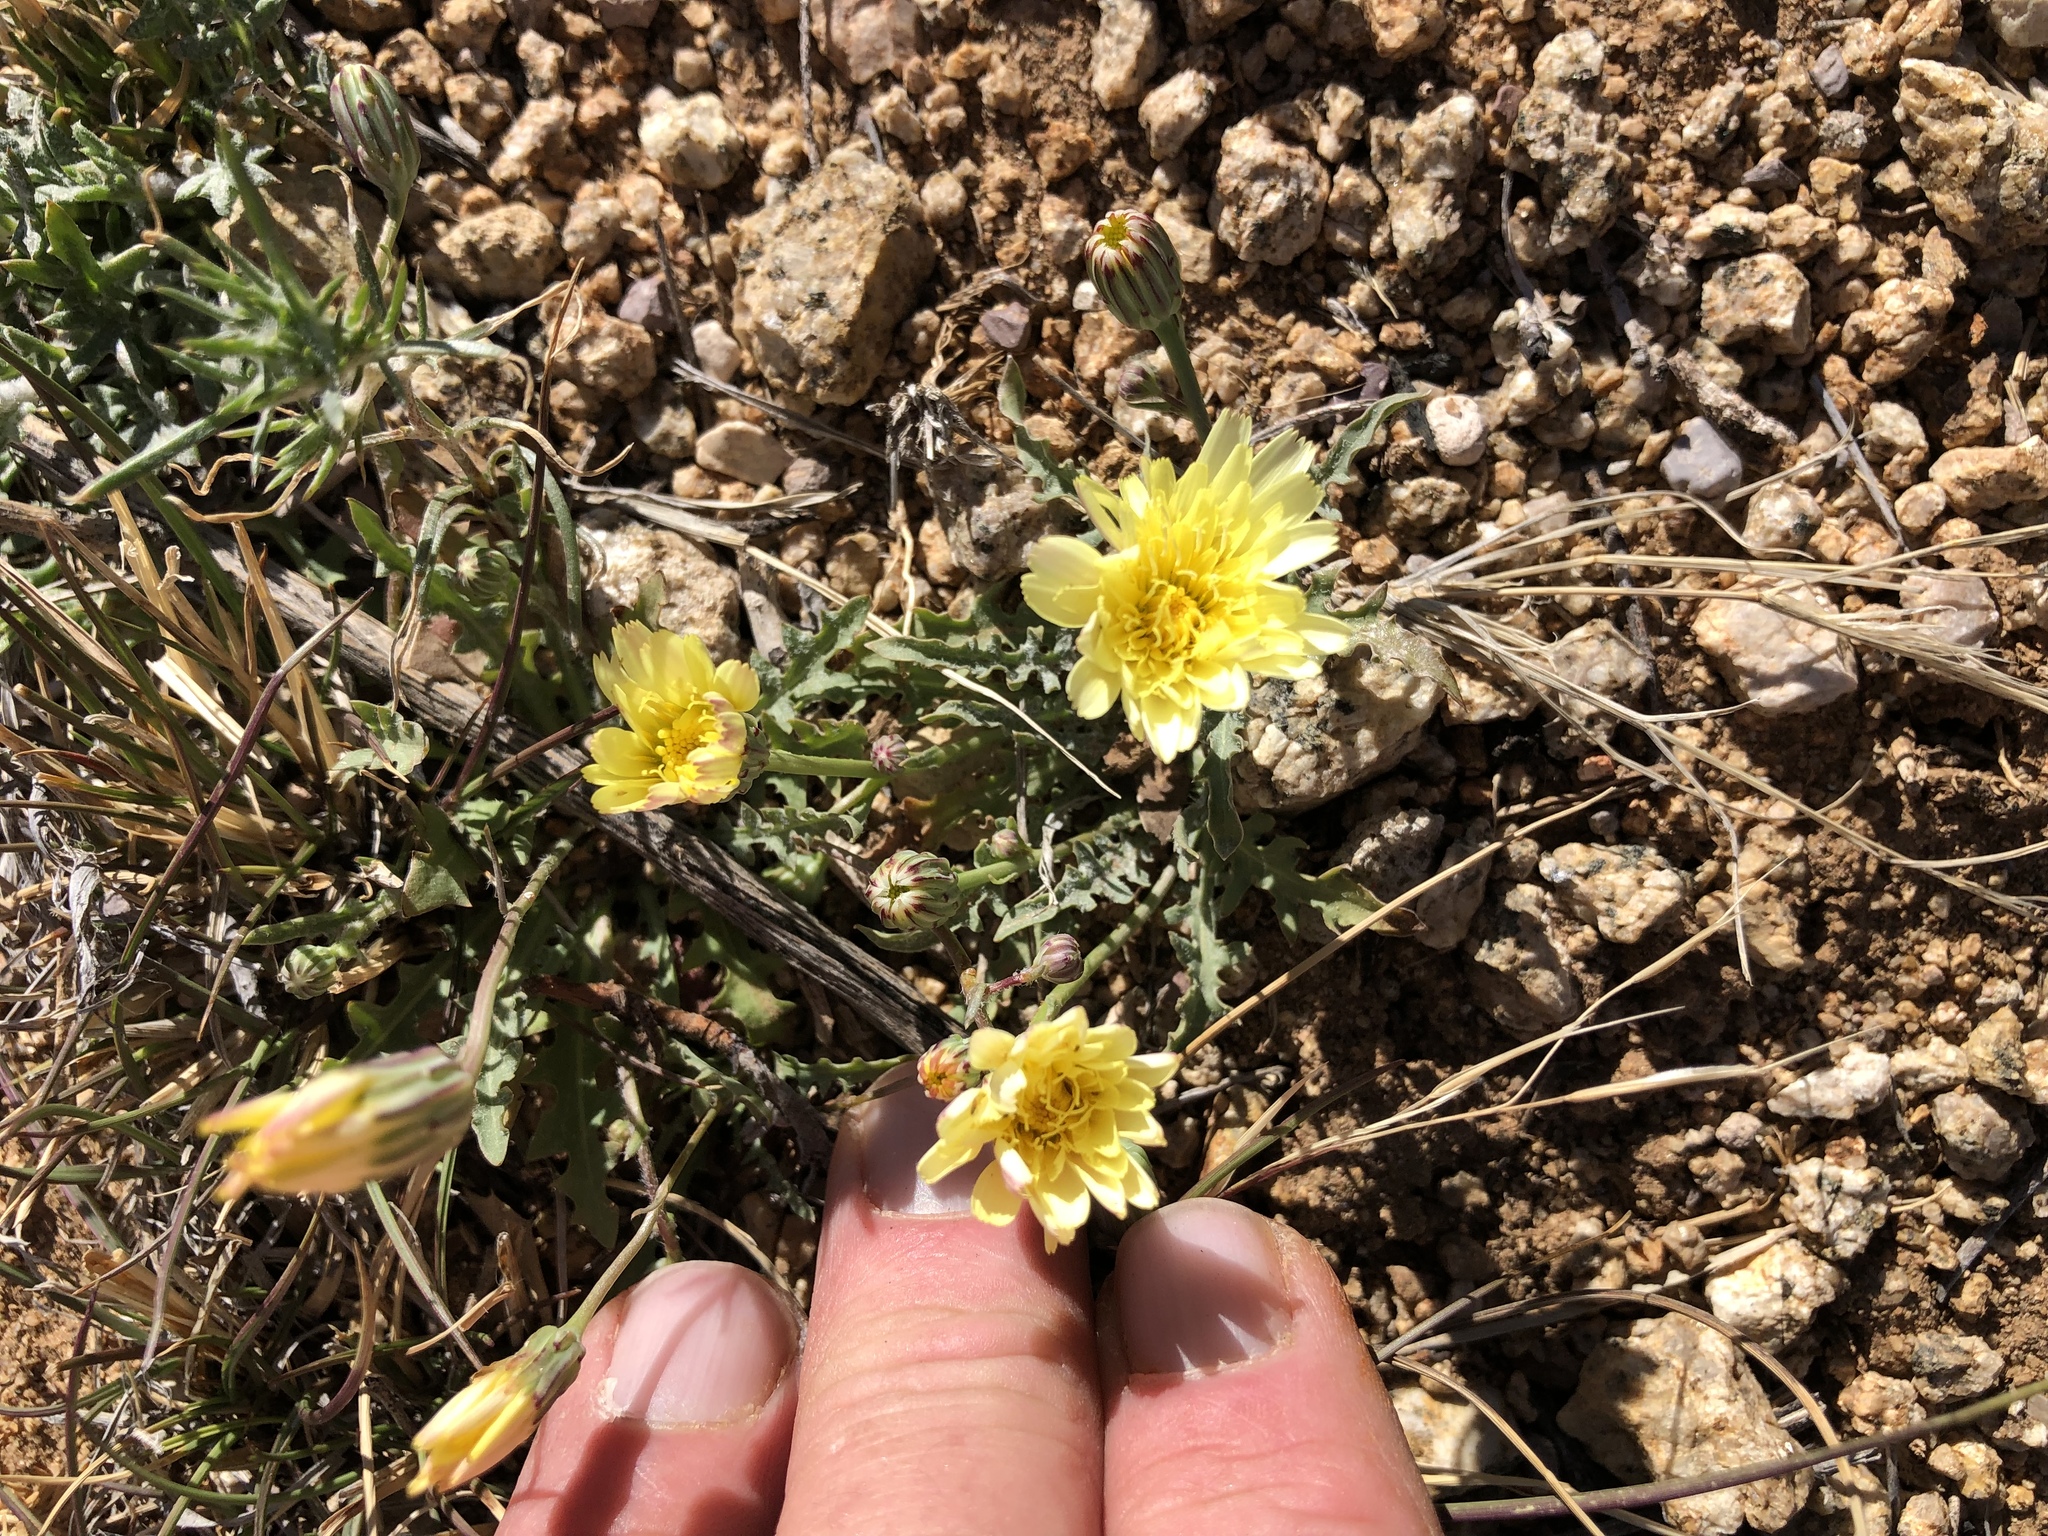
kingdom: Plantae
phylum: Tracheophyta
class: Magnoliopsida
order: Asterales
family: Asteraceae
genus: Malacothrix
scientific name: Malacothrix fendleri
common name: Fendler's desert-dandelion
